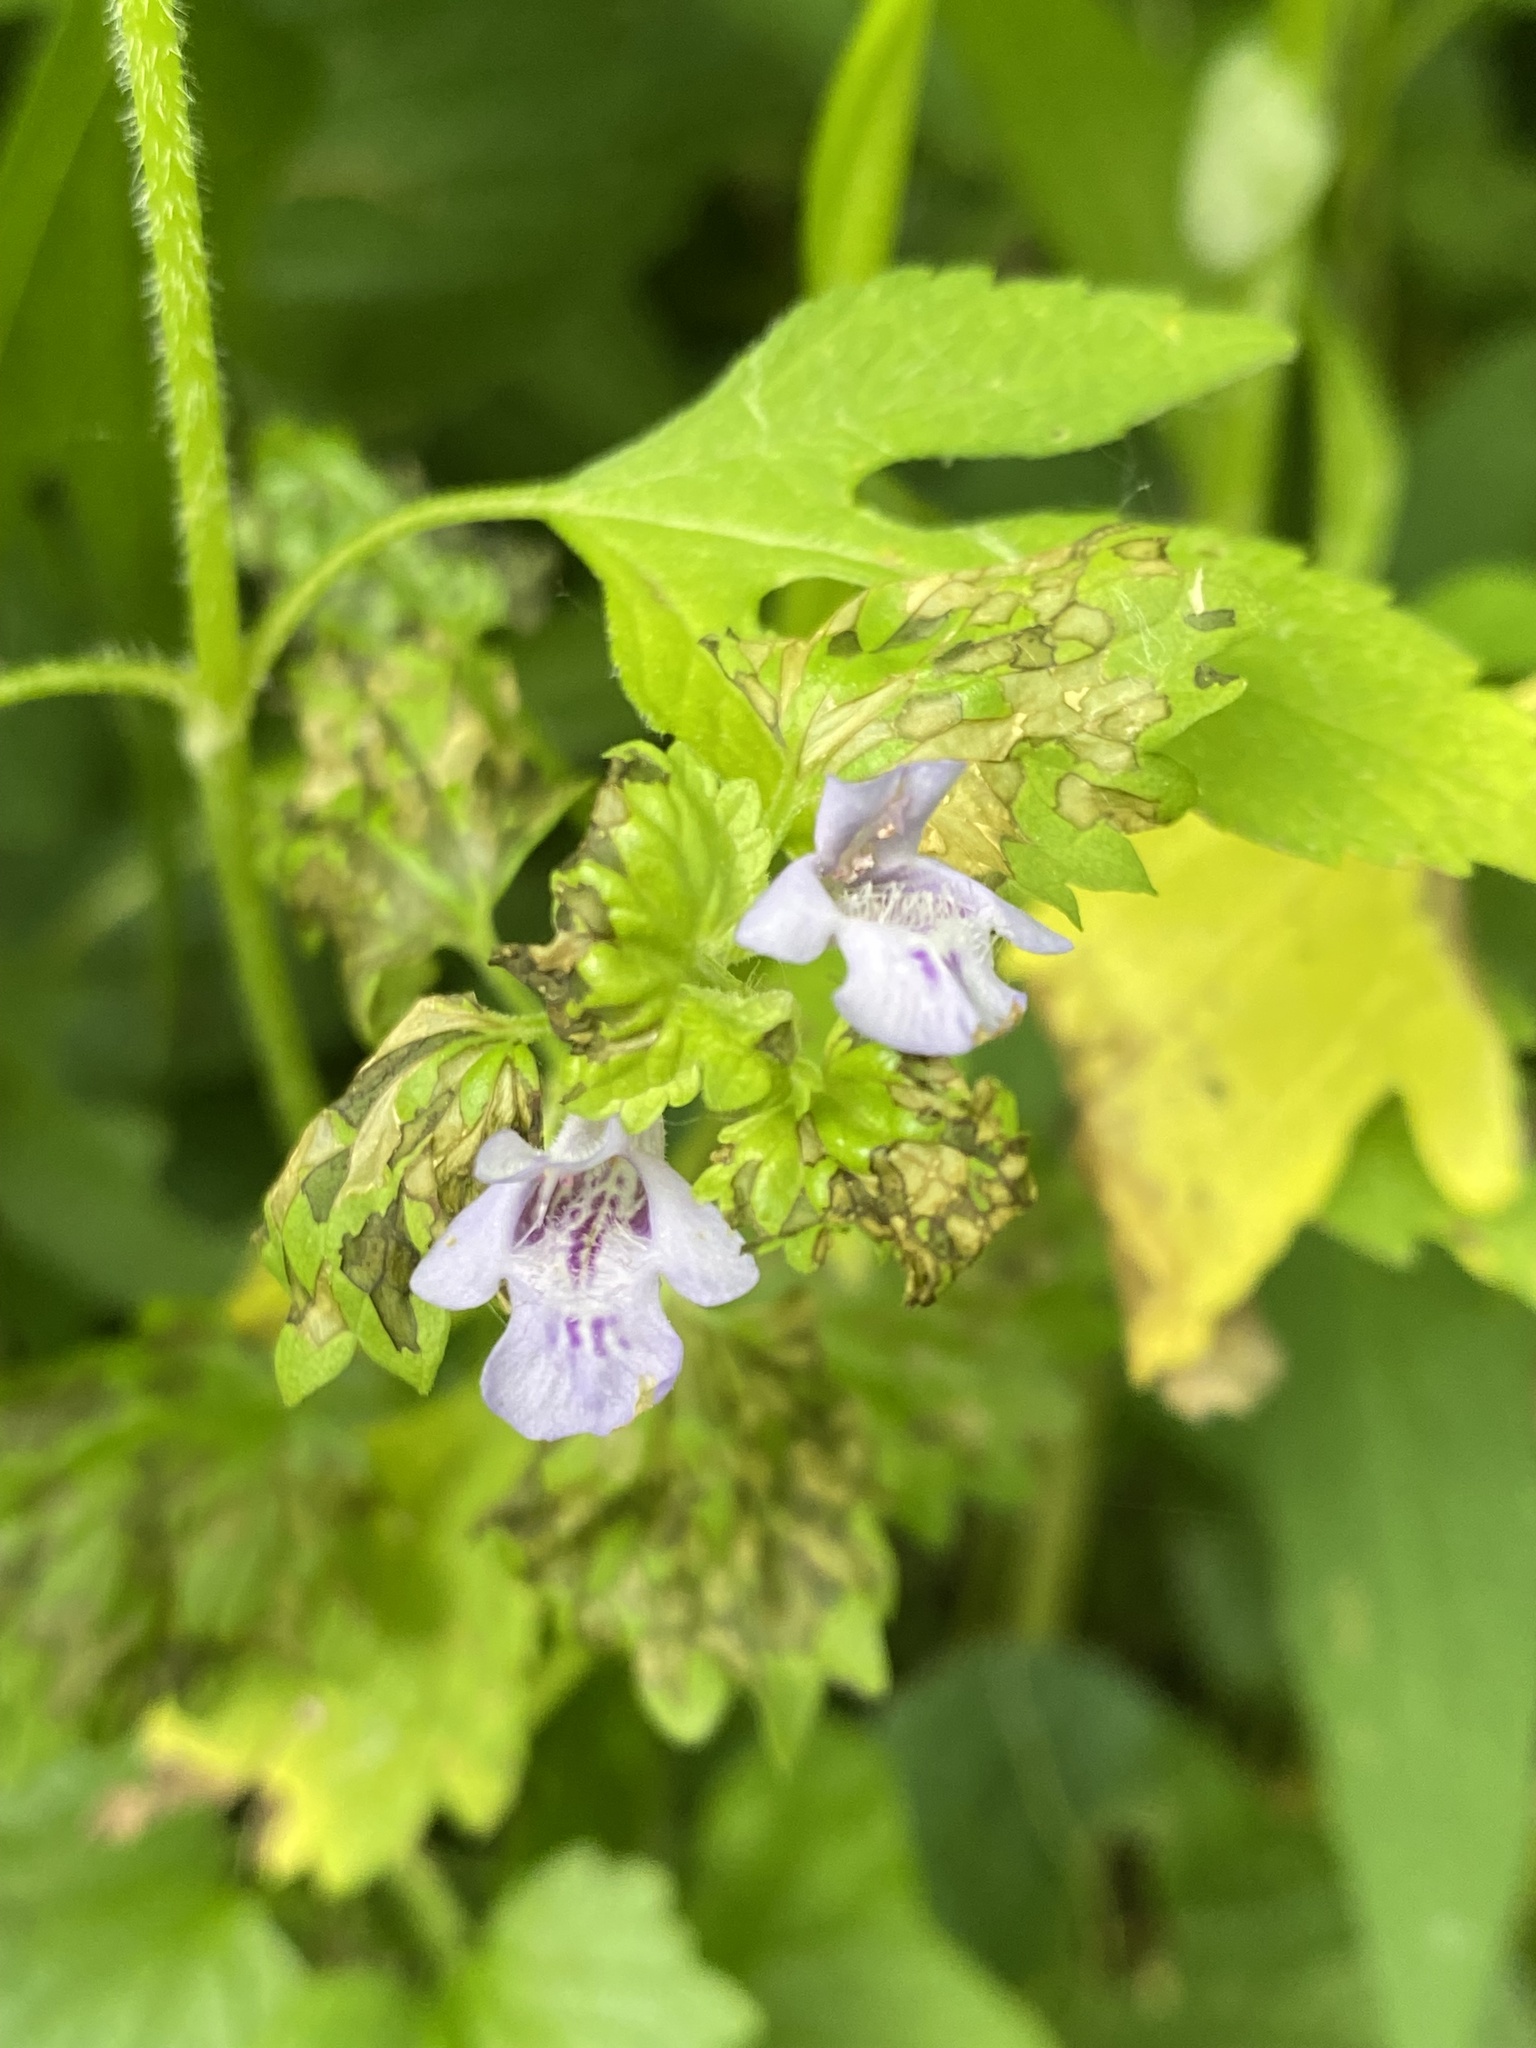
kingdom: Plantae
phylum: Tracheophyta
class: Magnoliopsida
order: Lamiales
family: Lamiaceae
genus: Glechoma
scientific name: Glechoma hederacea
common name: Ground ivy
